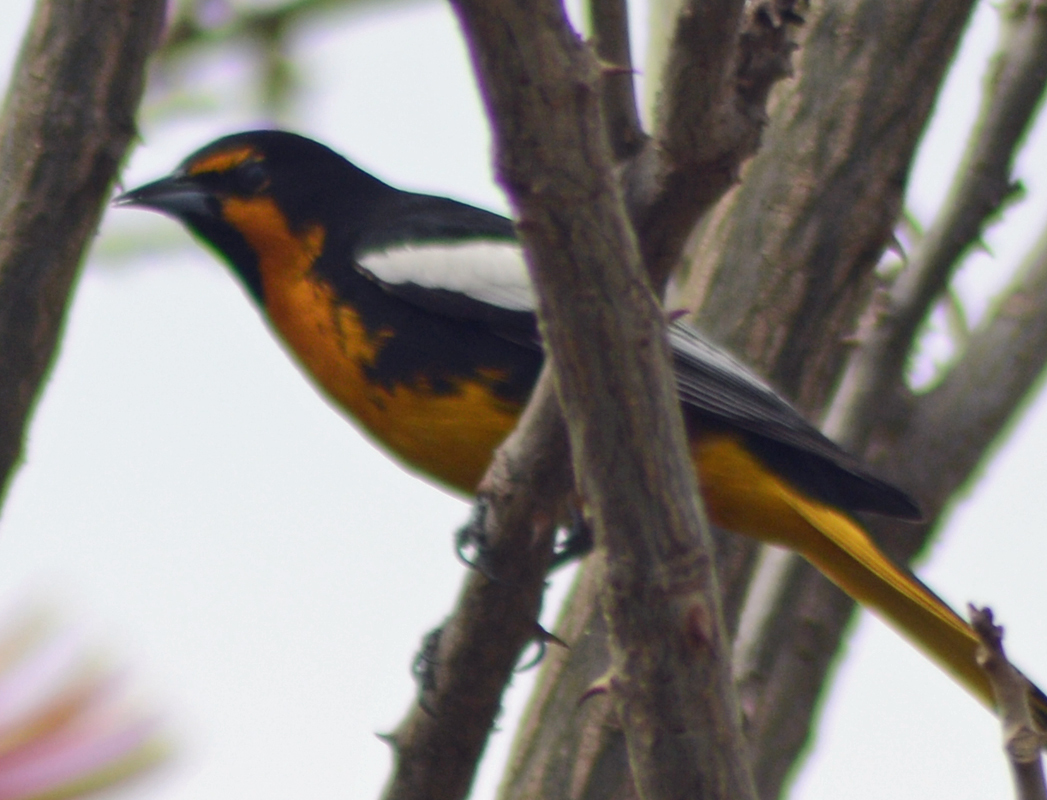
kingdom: Animalia
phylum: Chordata
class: Aves
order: Passeriformes
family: Icteridae
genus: Icterus
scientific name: Icterus abeillei
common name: Black-backed oriole
